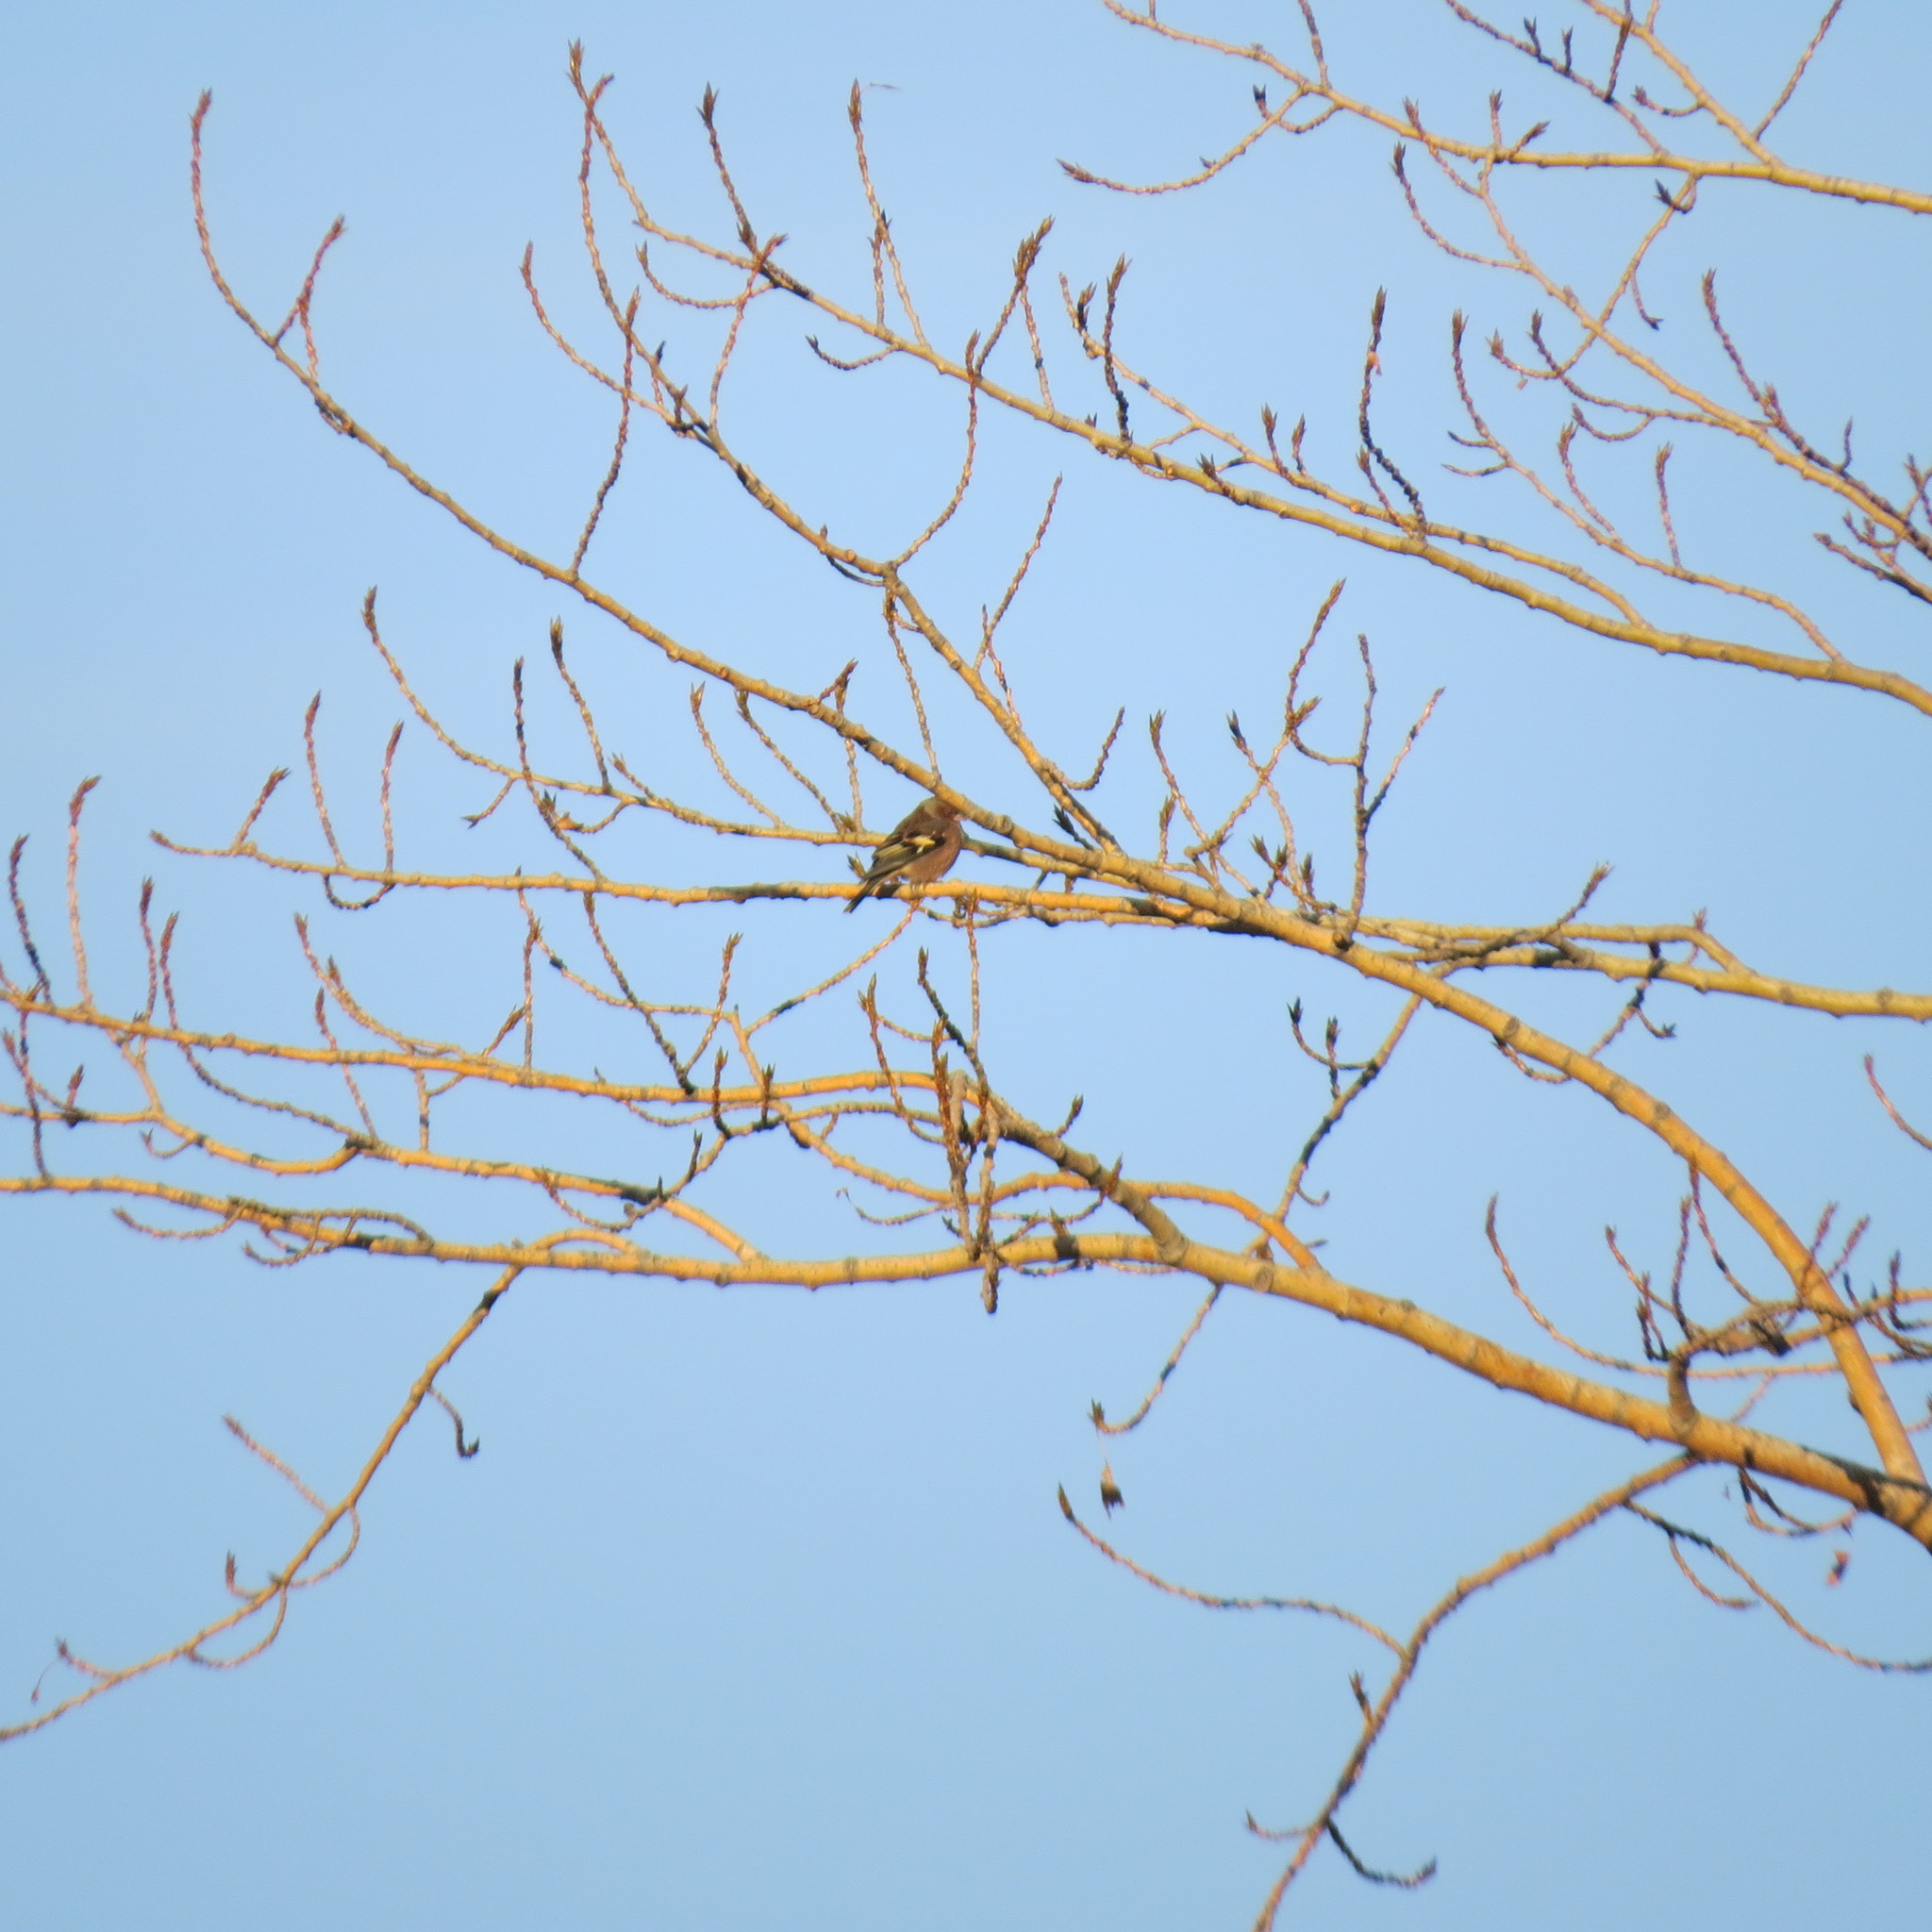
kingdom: Animalia
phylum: Chordata
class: Aves
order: Passeriformes
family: Fringillidae
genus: Fringilla
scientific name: Fringilla coelebs
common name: Common chaffinch
